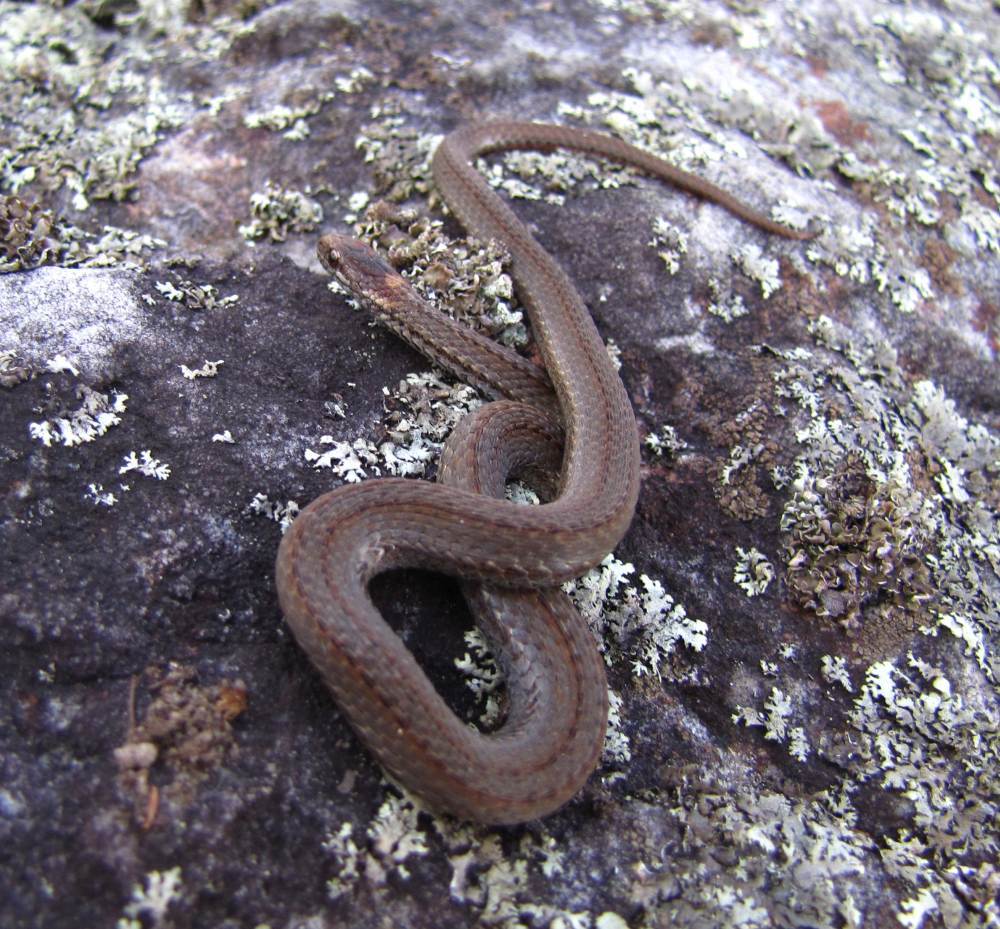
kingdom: Animalia
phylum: Chordata
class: Squamata
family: Colubridae
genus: Storeria
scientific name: Storeria occipitomaculata
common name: Redbelly snake
